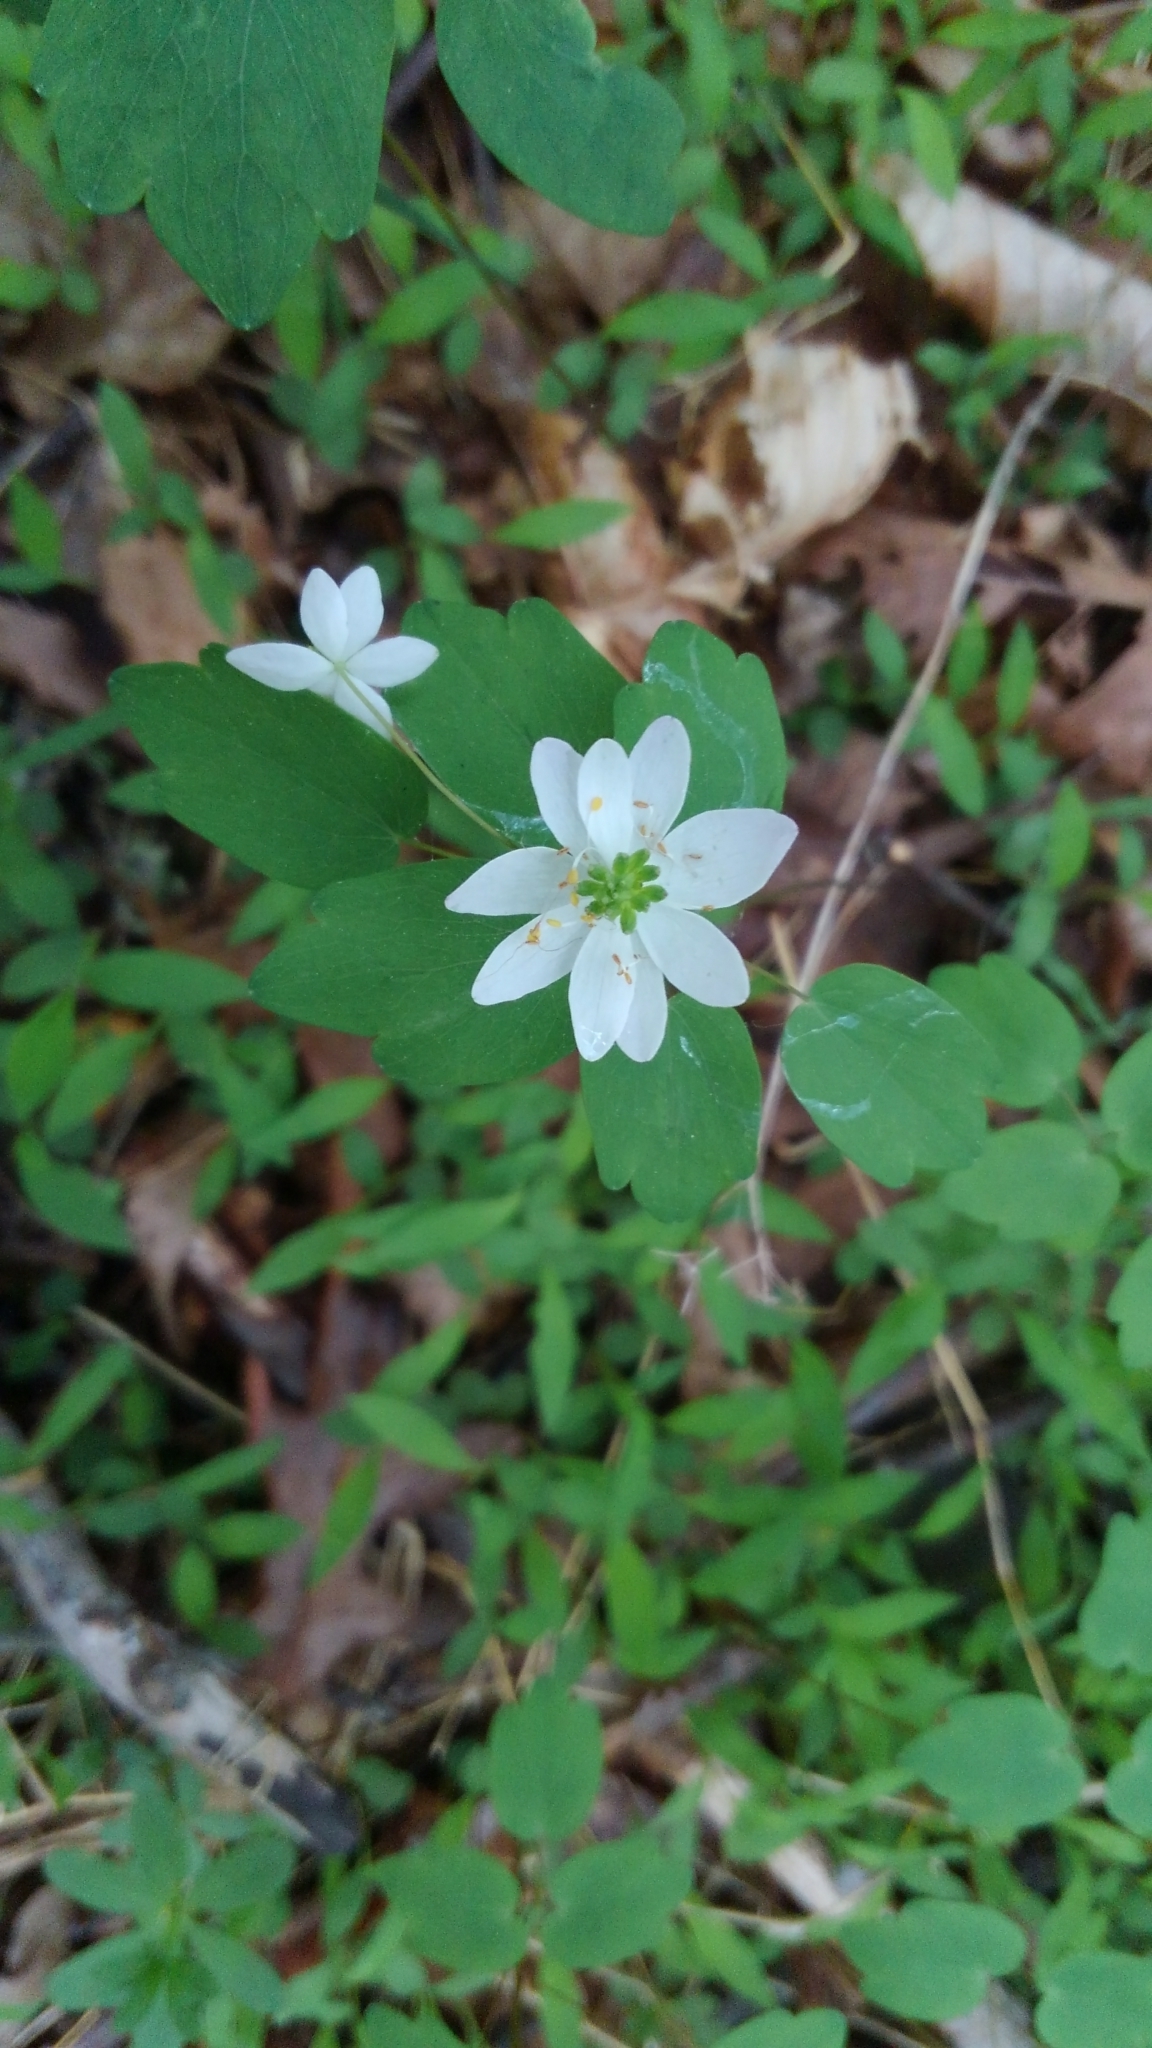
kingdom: Plantae
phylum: Tracheophyta
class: Magnoliopsida
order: Ranunculales
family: Ranunculaceae
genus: Thalictrum
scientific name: Thalictrum thalictroides
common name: Rue-anemone
